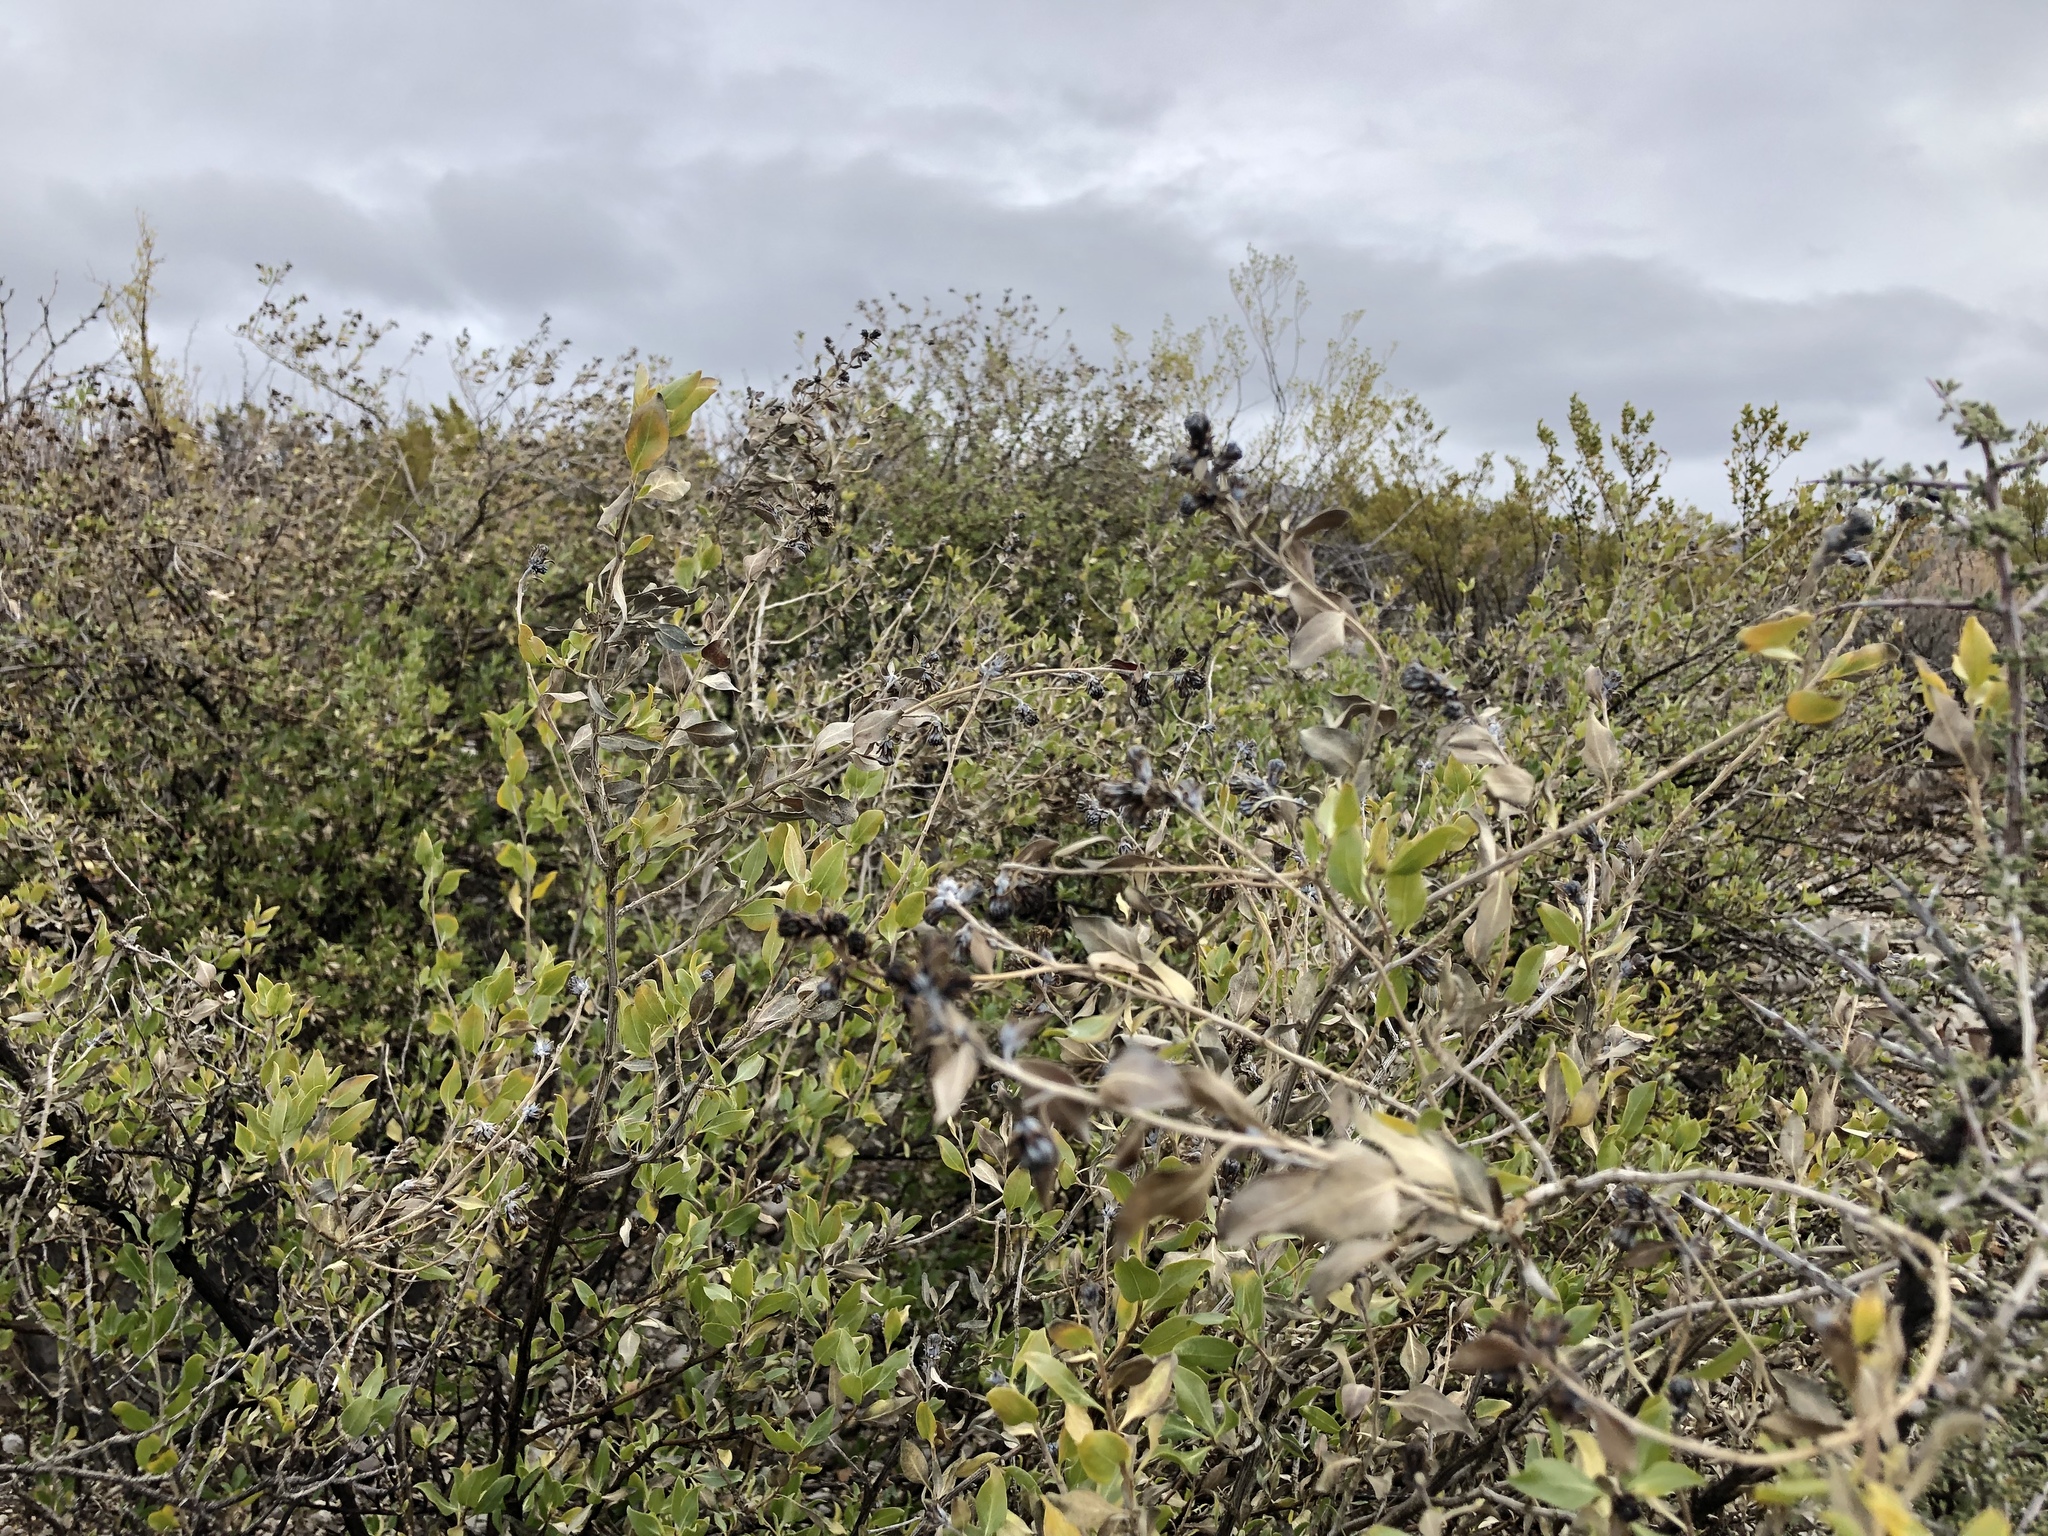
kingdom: Plantae
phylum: Tracheophyta
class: Magnoliopsida
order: Asterales
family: Asteraceae
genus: Flourensia
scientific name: Flourensia cernua
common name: Varnishbush
